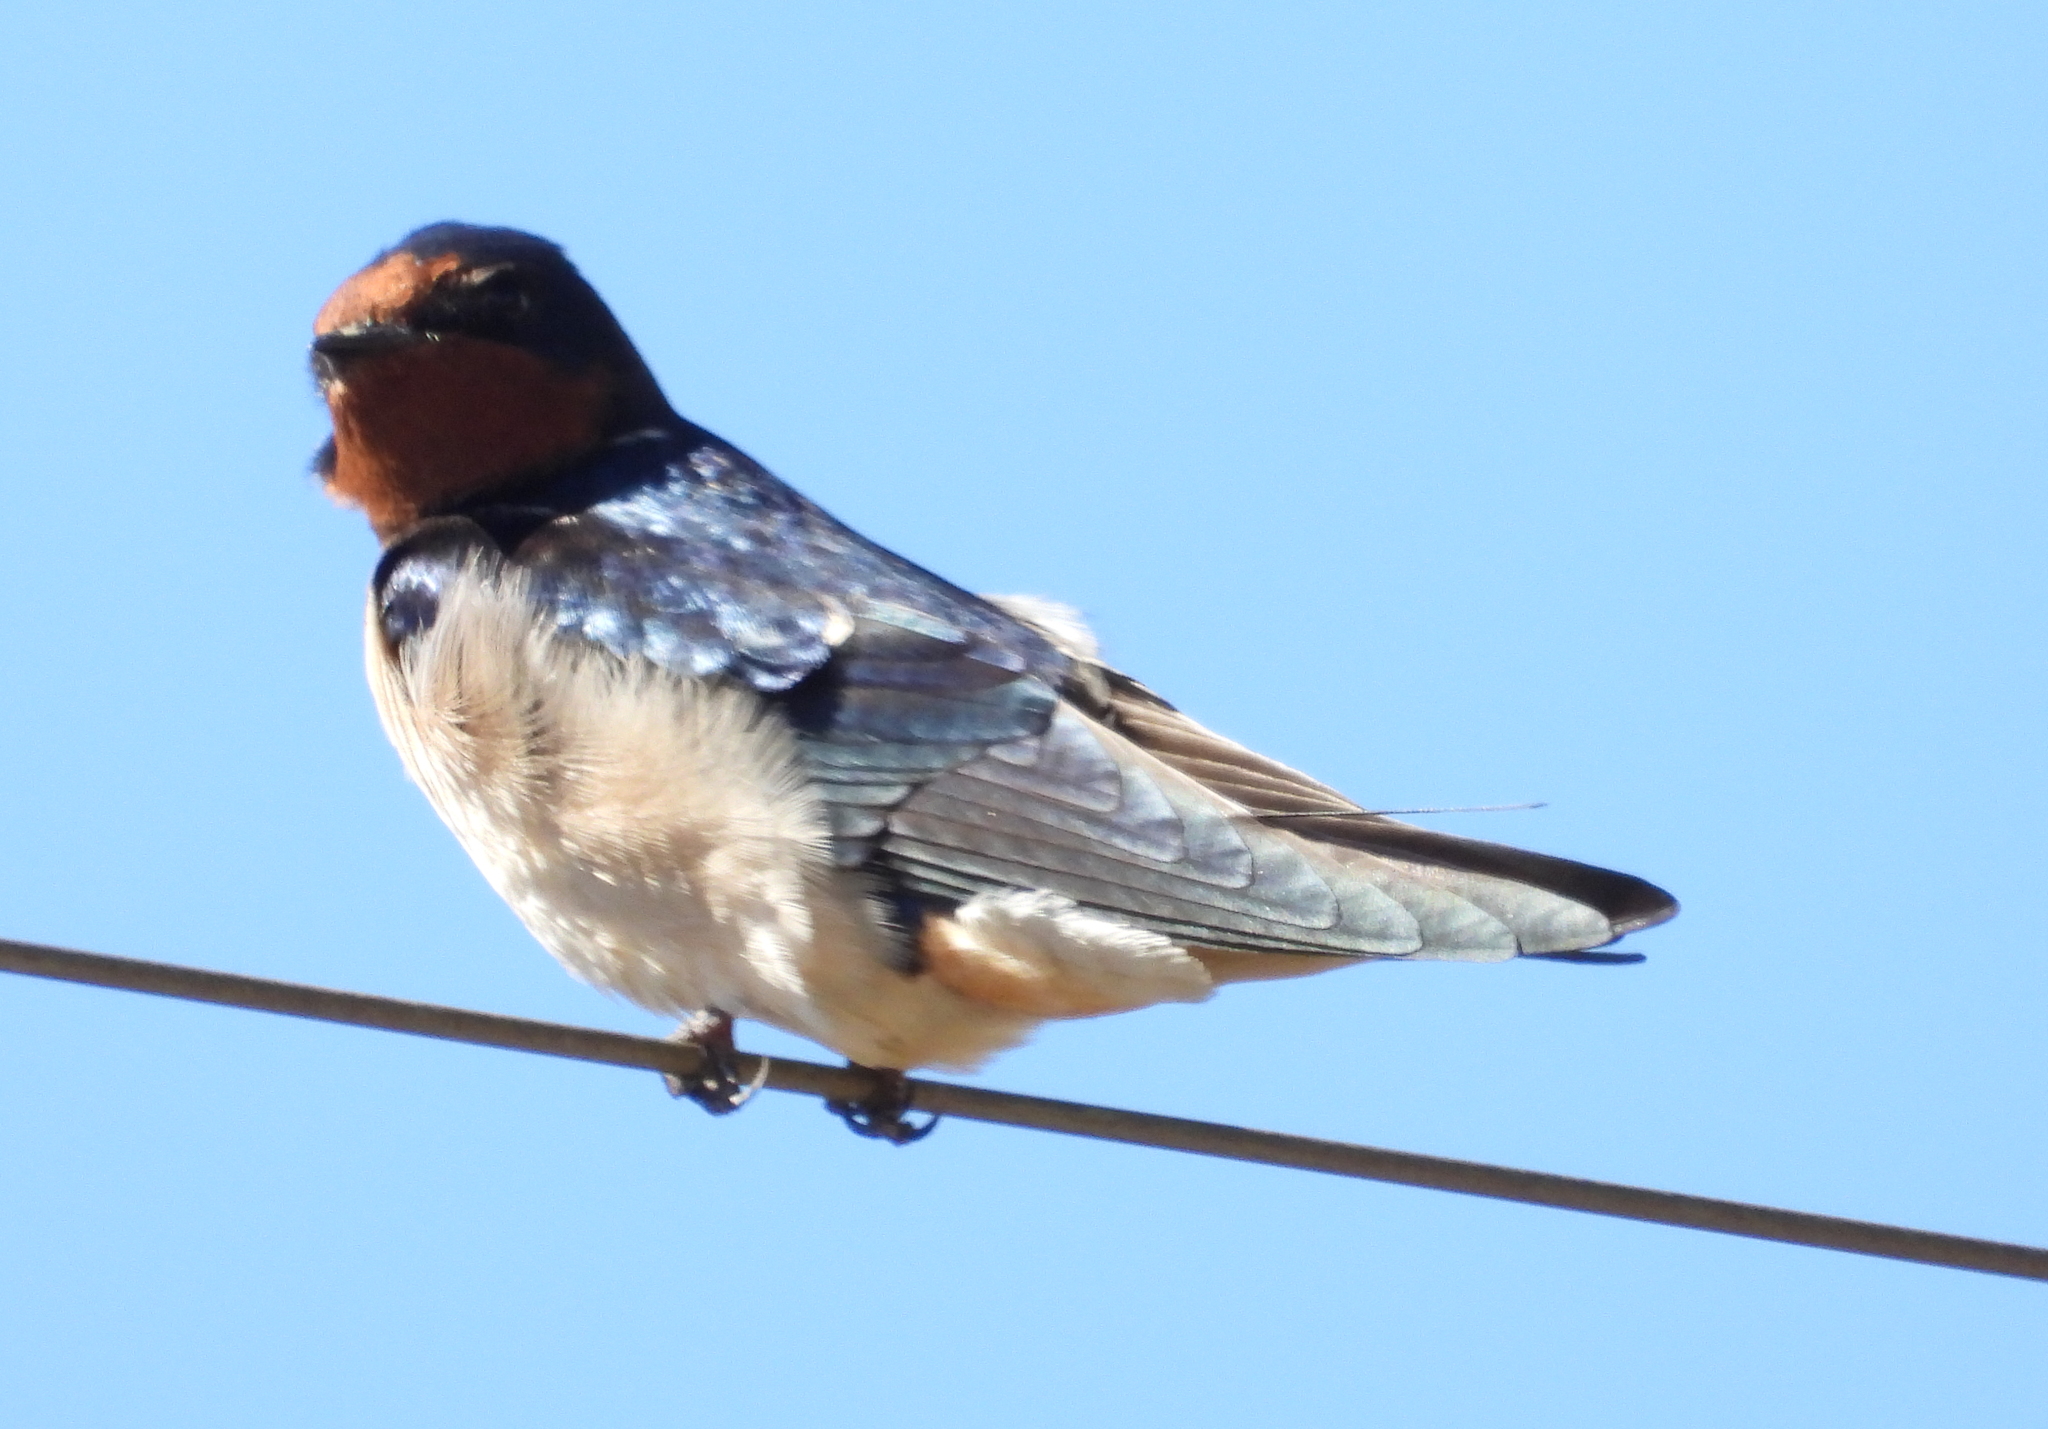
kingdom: Animalia
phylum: Chordata
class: Aves
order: Passeriformes
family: Hirundinidae
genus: Hirundo
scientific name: Hirundo rustica
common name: Barn swallow
